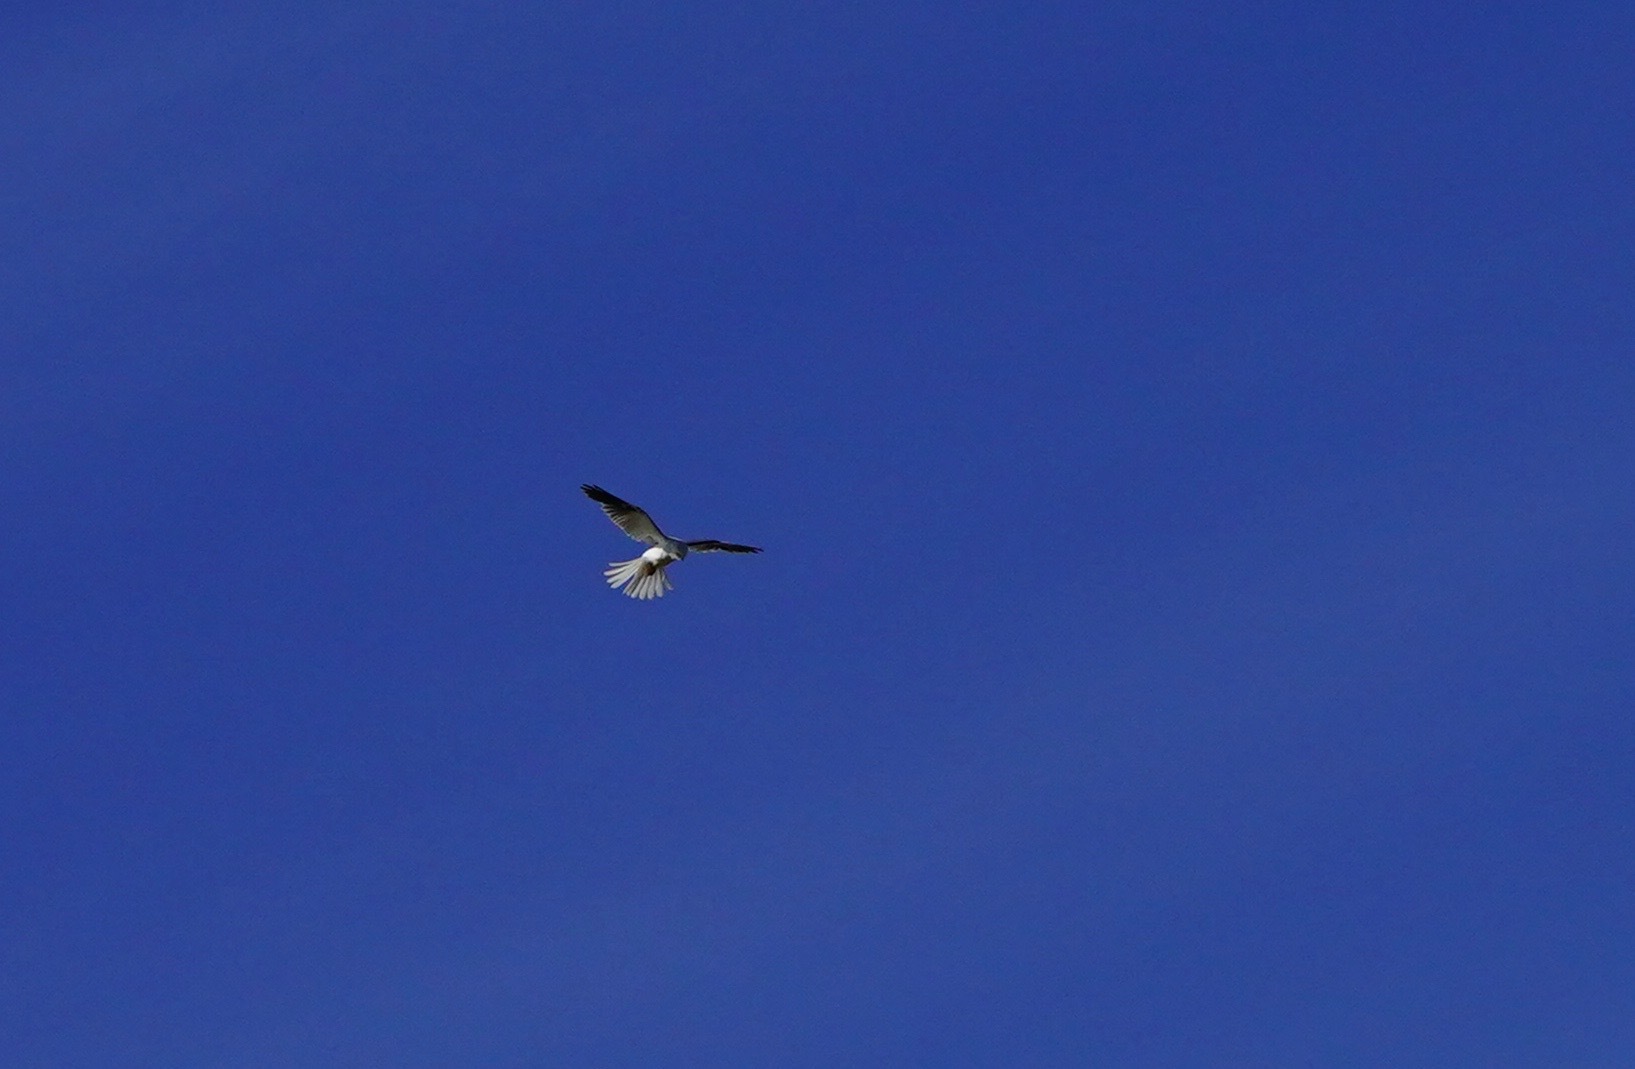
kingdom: Animalia
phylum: Chordata
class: Aves
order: Accipitriformes
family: Accipitridae
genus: Elanus
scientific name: Elanus leucurus
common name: White-tailed kite
